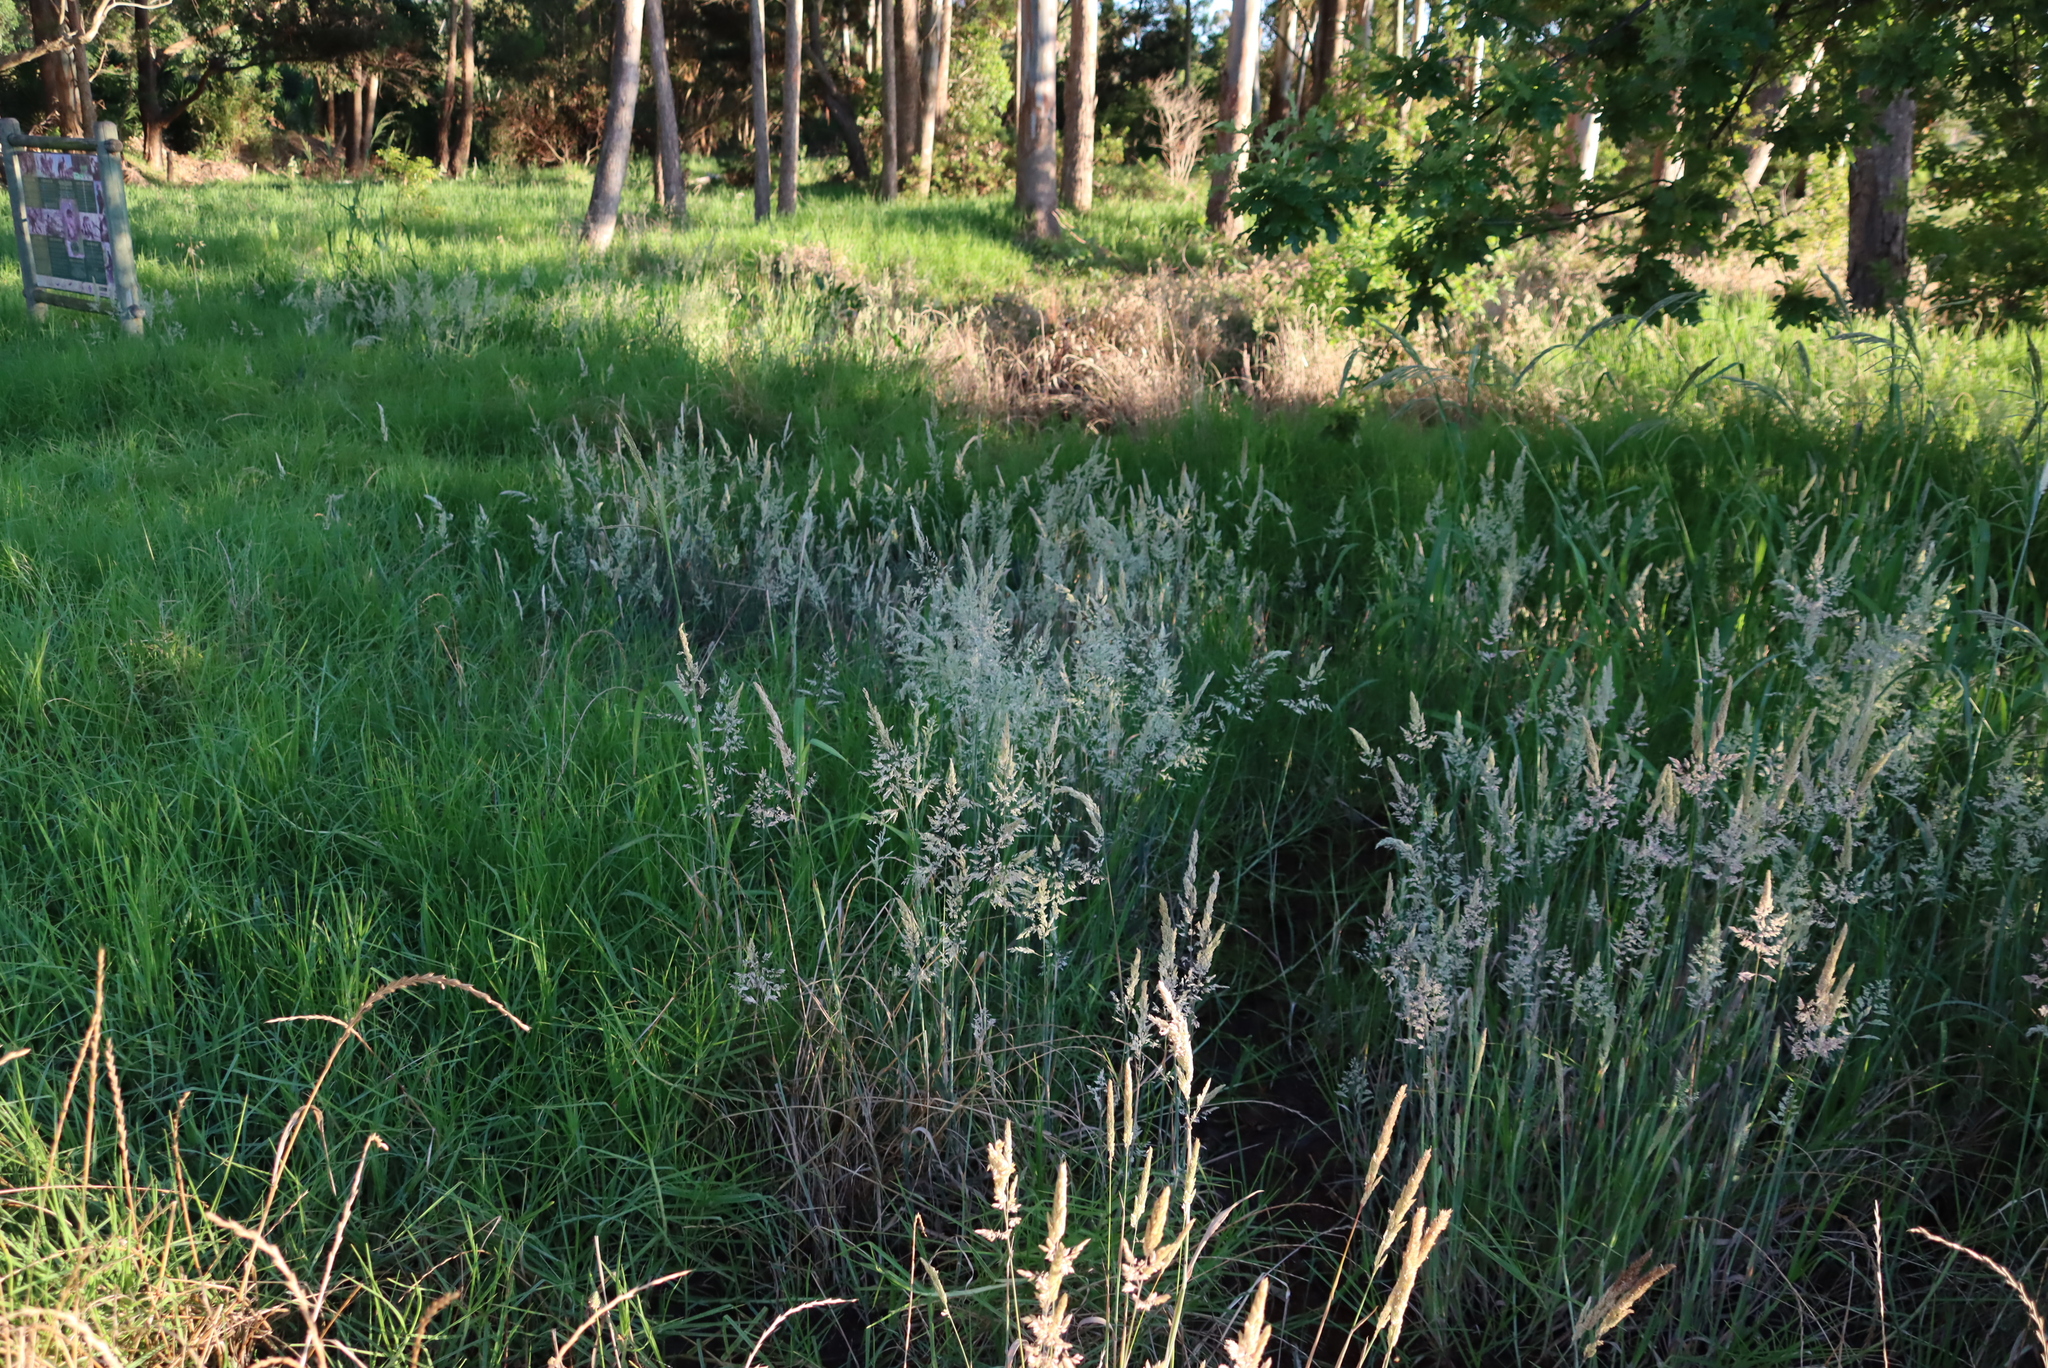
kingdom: Plantae
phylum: Tracheophyta
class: Liliopsida
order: Poales
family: Poaceae
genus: Holcus
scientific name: Holcus lanatus
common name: Yorkshire-fog
